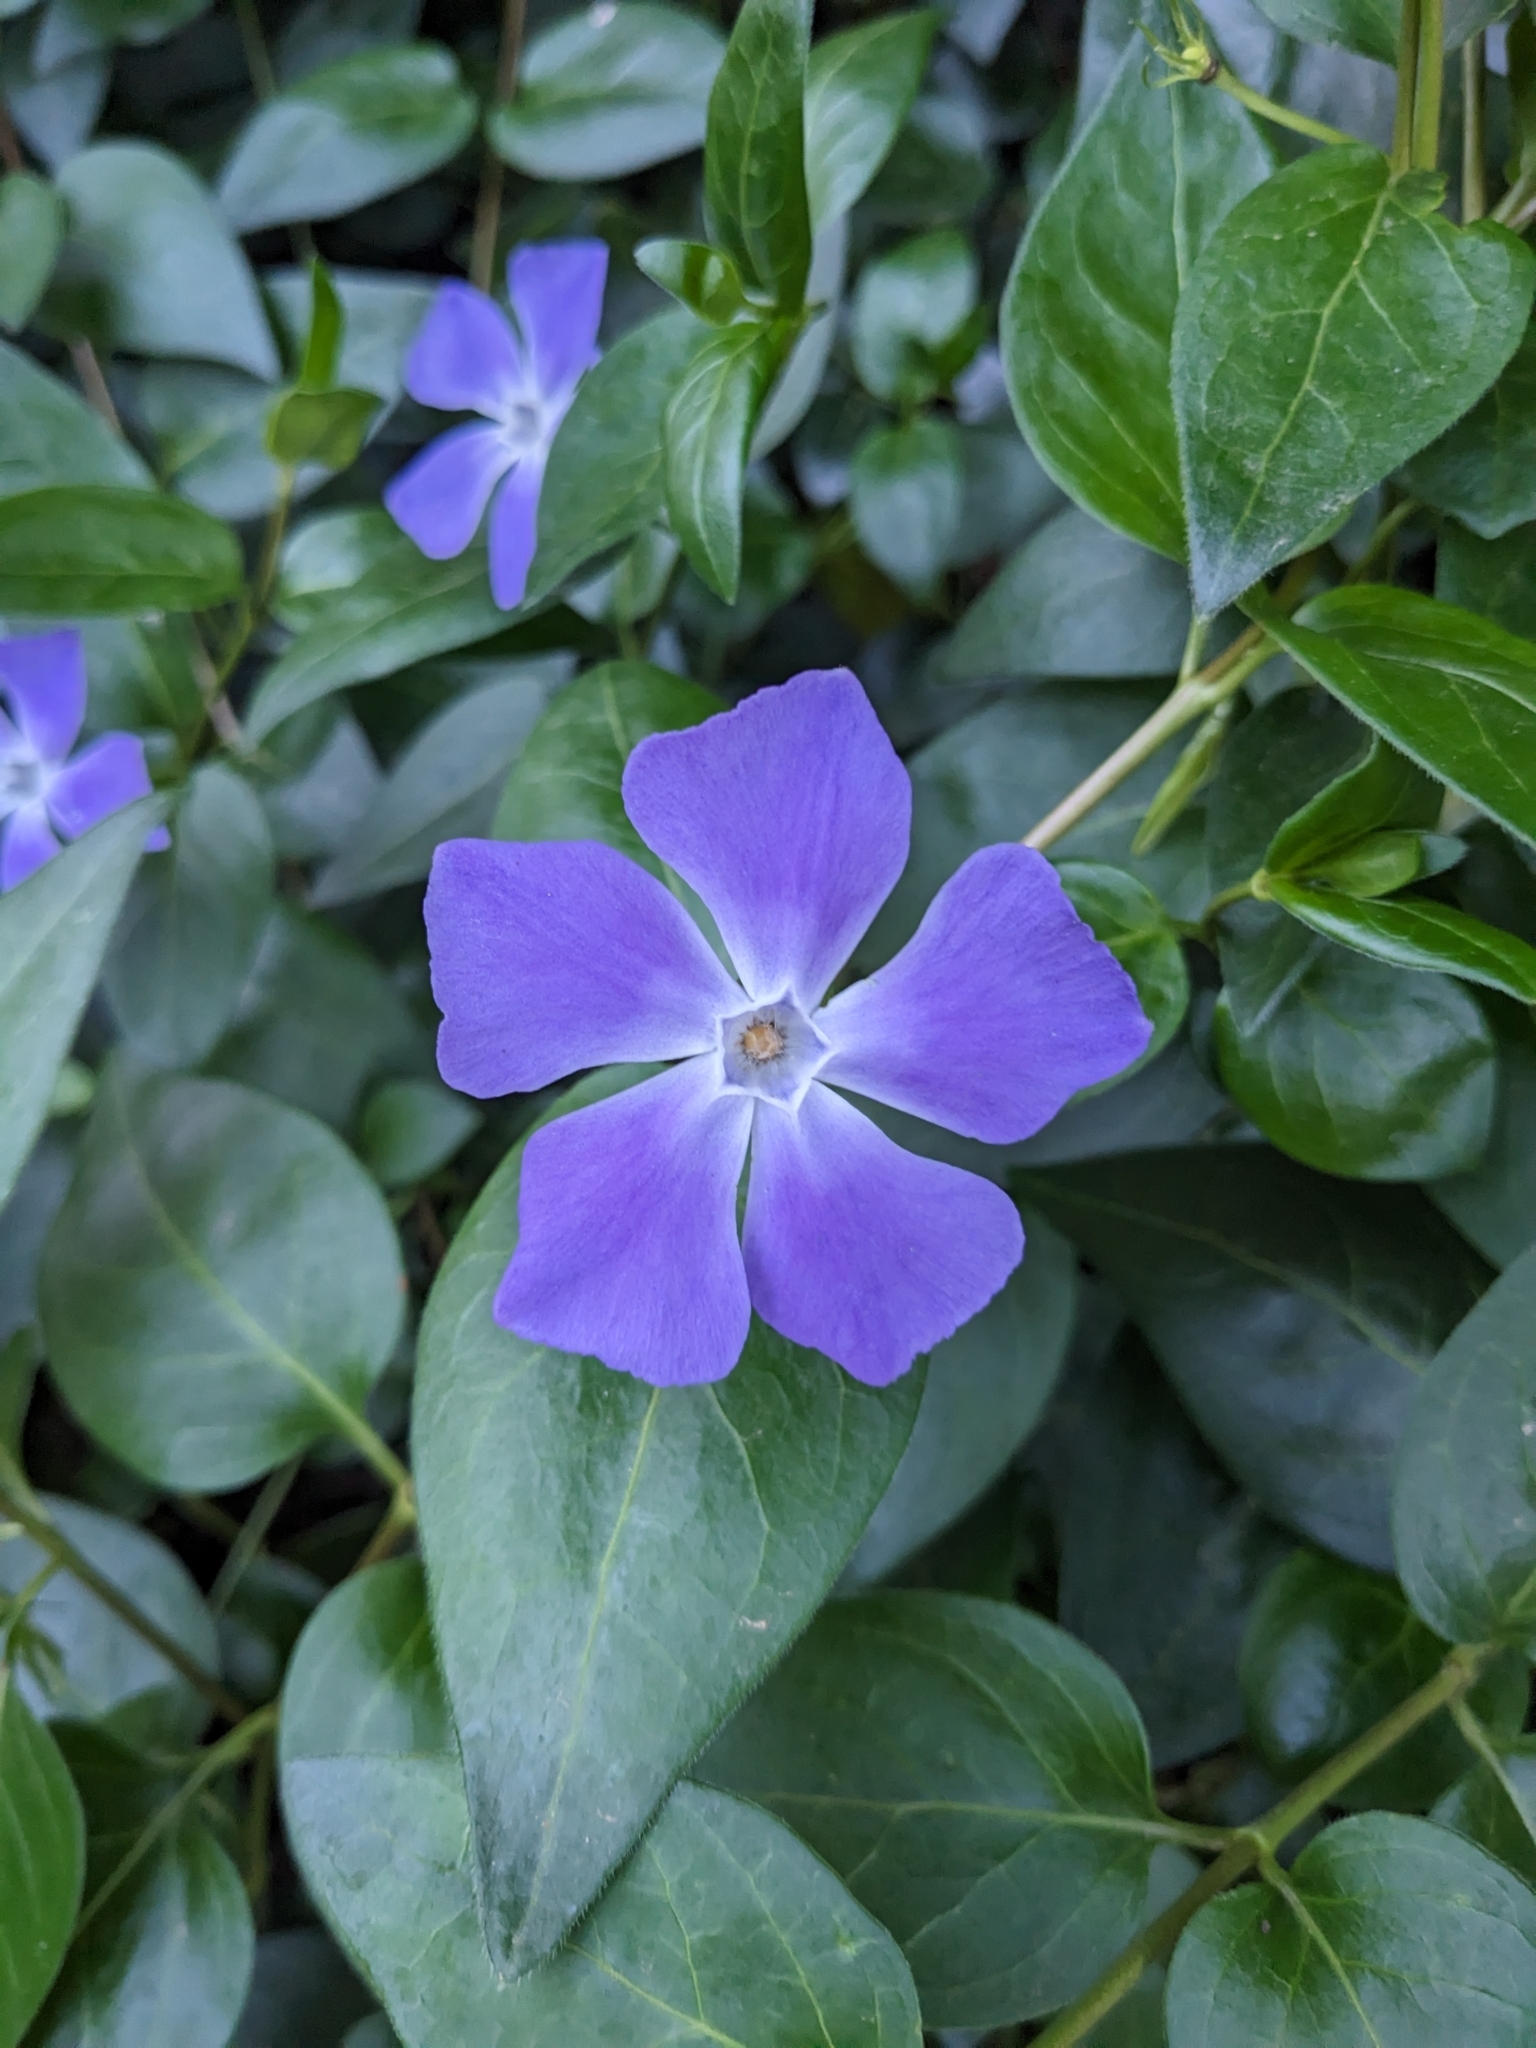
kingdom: Plantae
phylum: Tracheophyta
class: Magnoliopsida
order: Gentianales
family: Apocynaceae
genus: Vinca
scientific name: Vinca major
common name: Greater periwinkle
